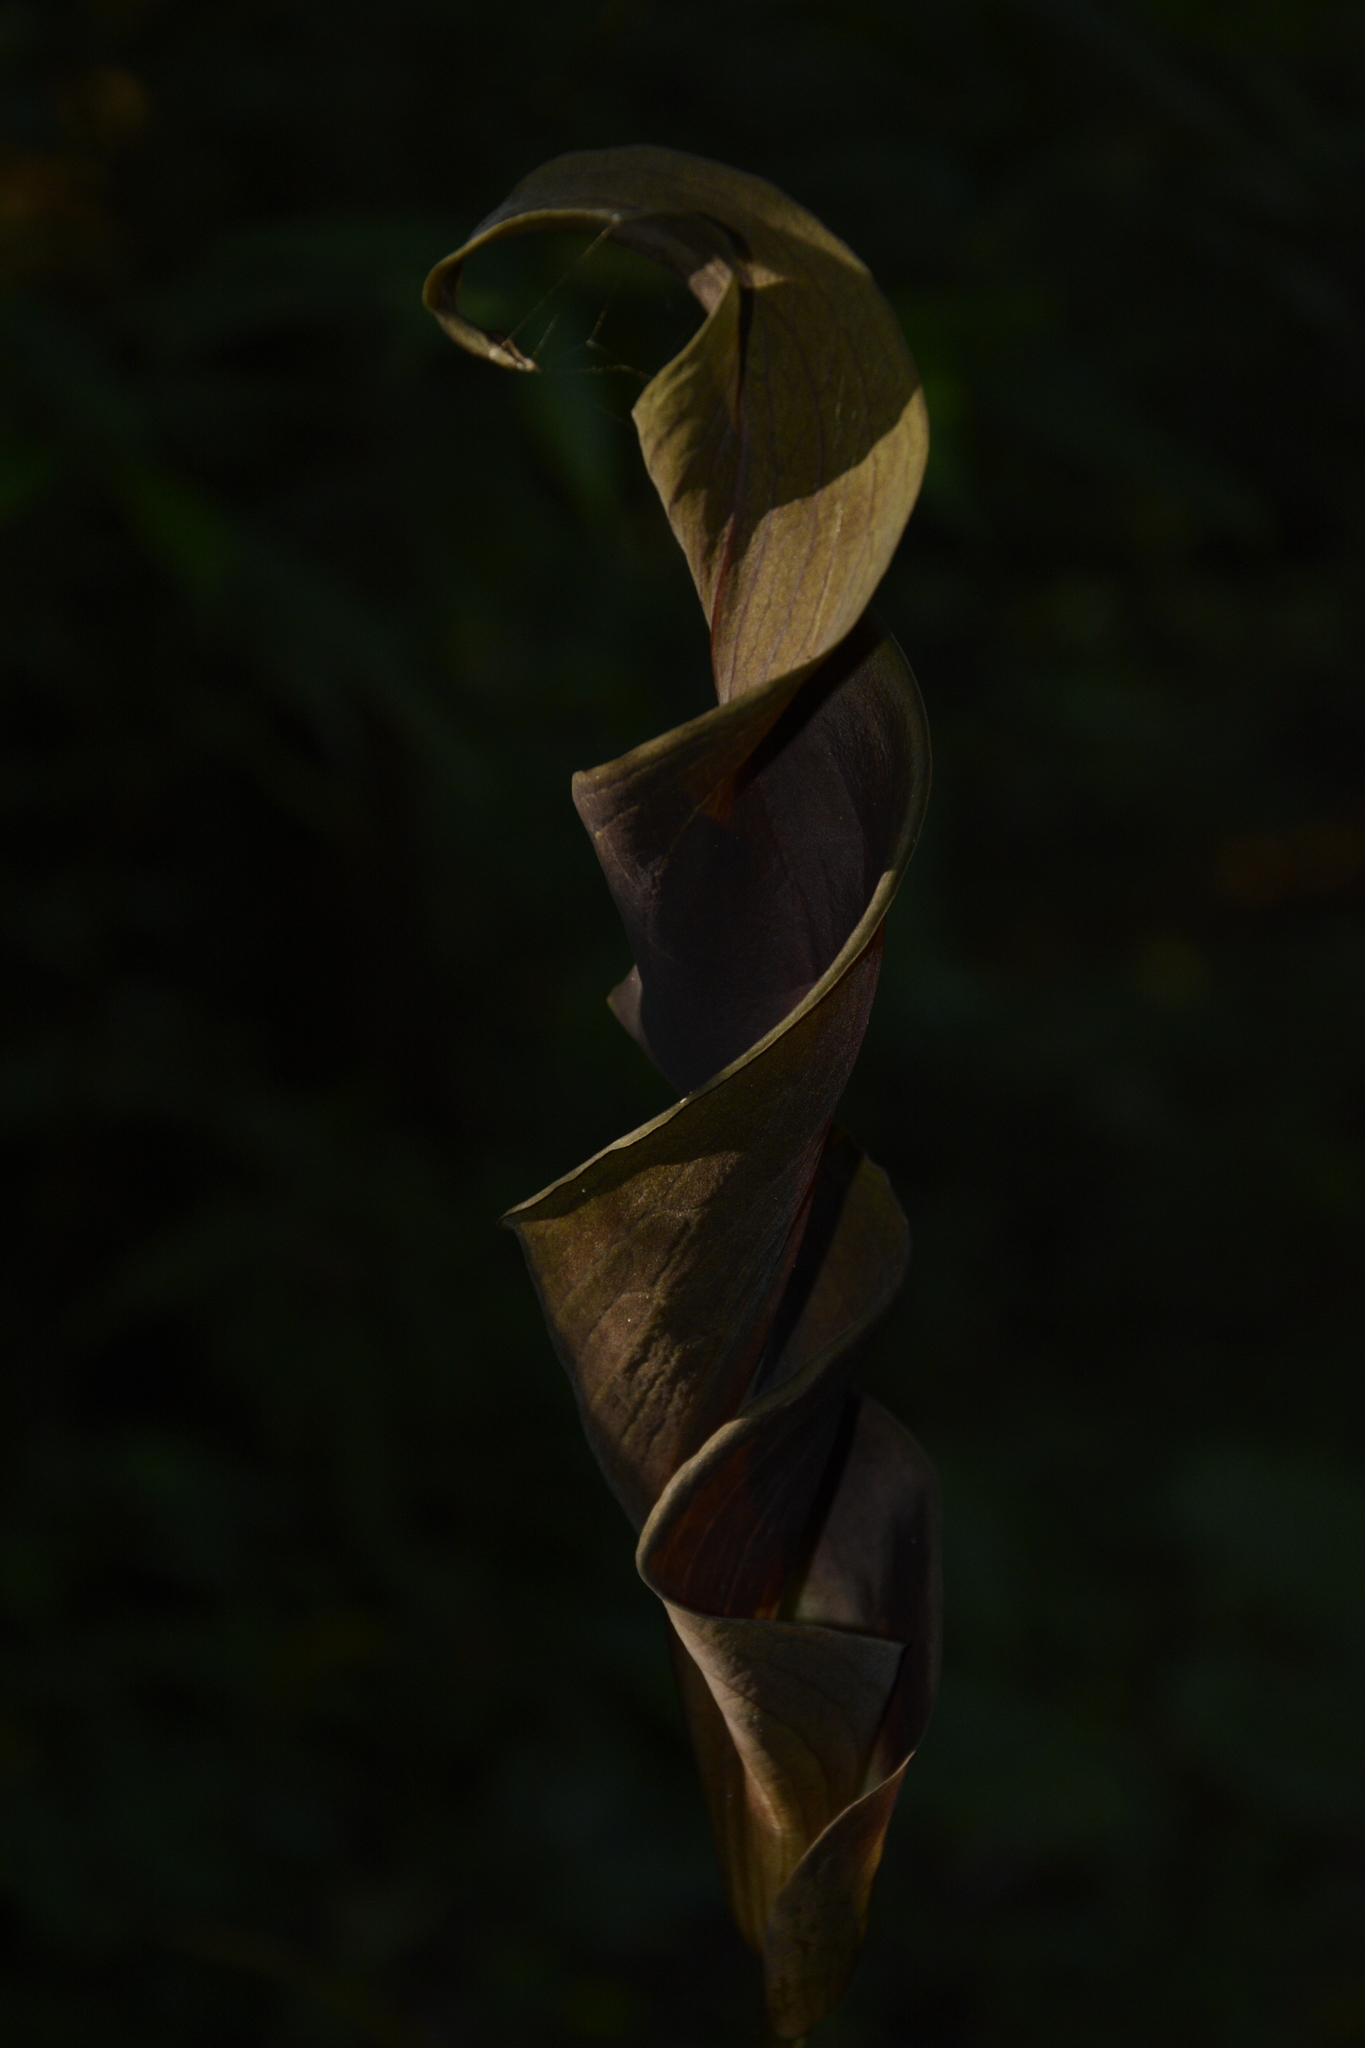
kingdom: Plantae
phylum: Tracheophyta
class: Liliopsida
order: Alismatales
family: Araceae
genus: Anaphyllum
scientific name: Anaphyllum wightii
